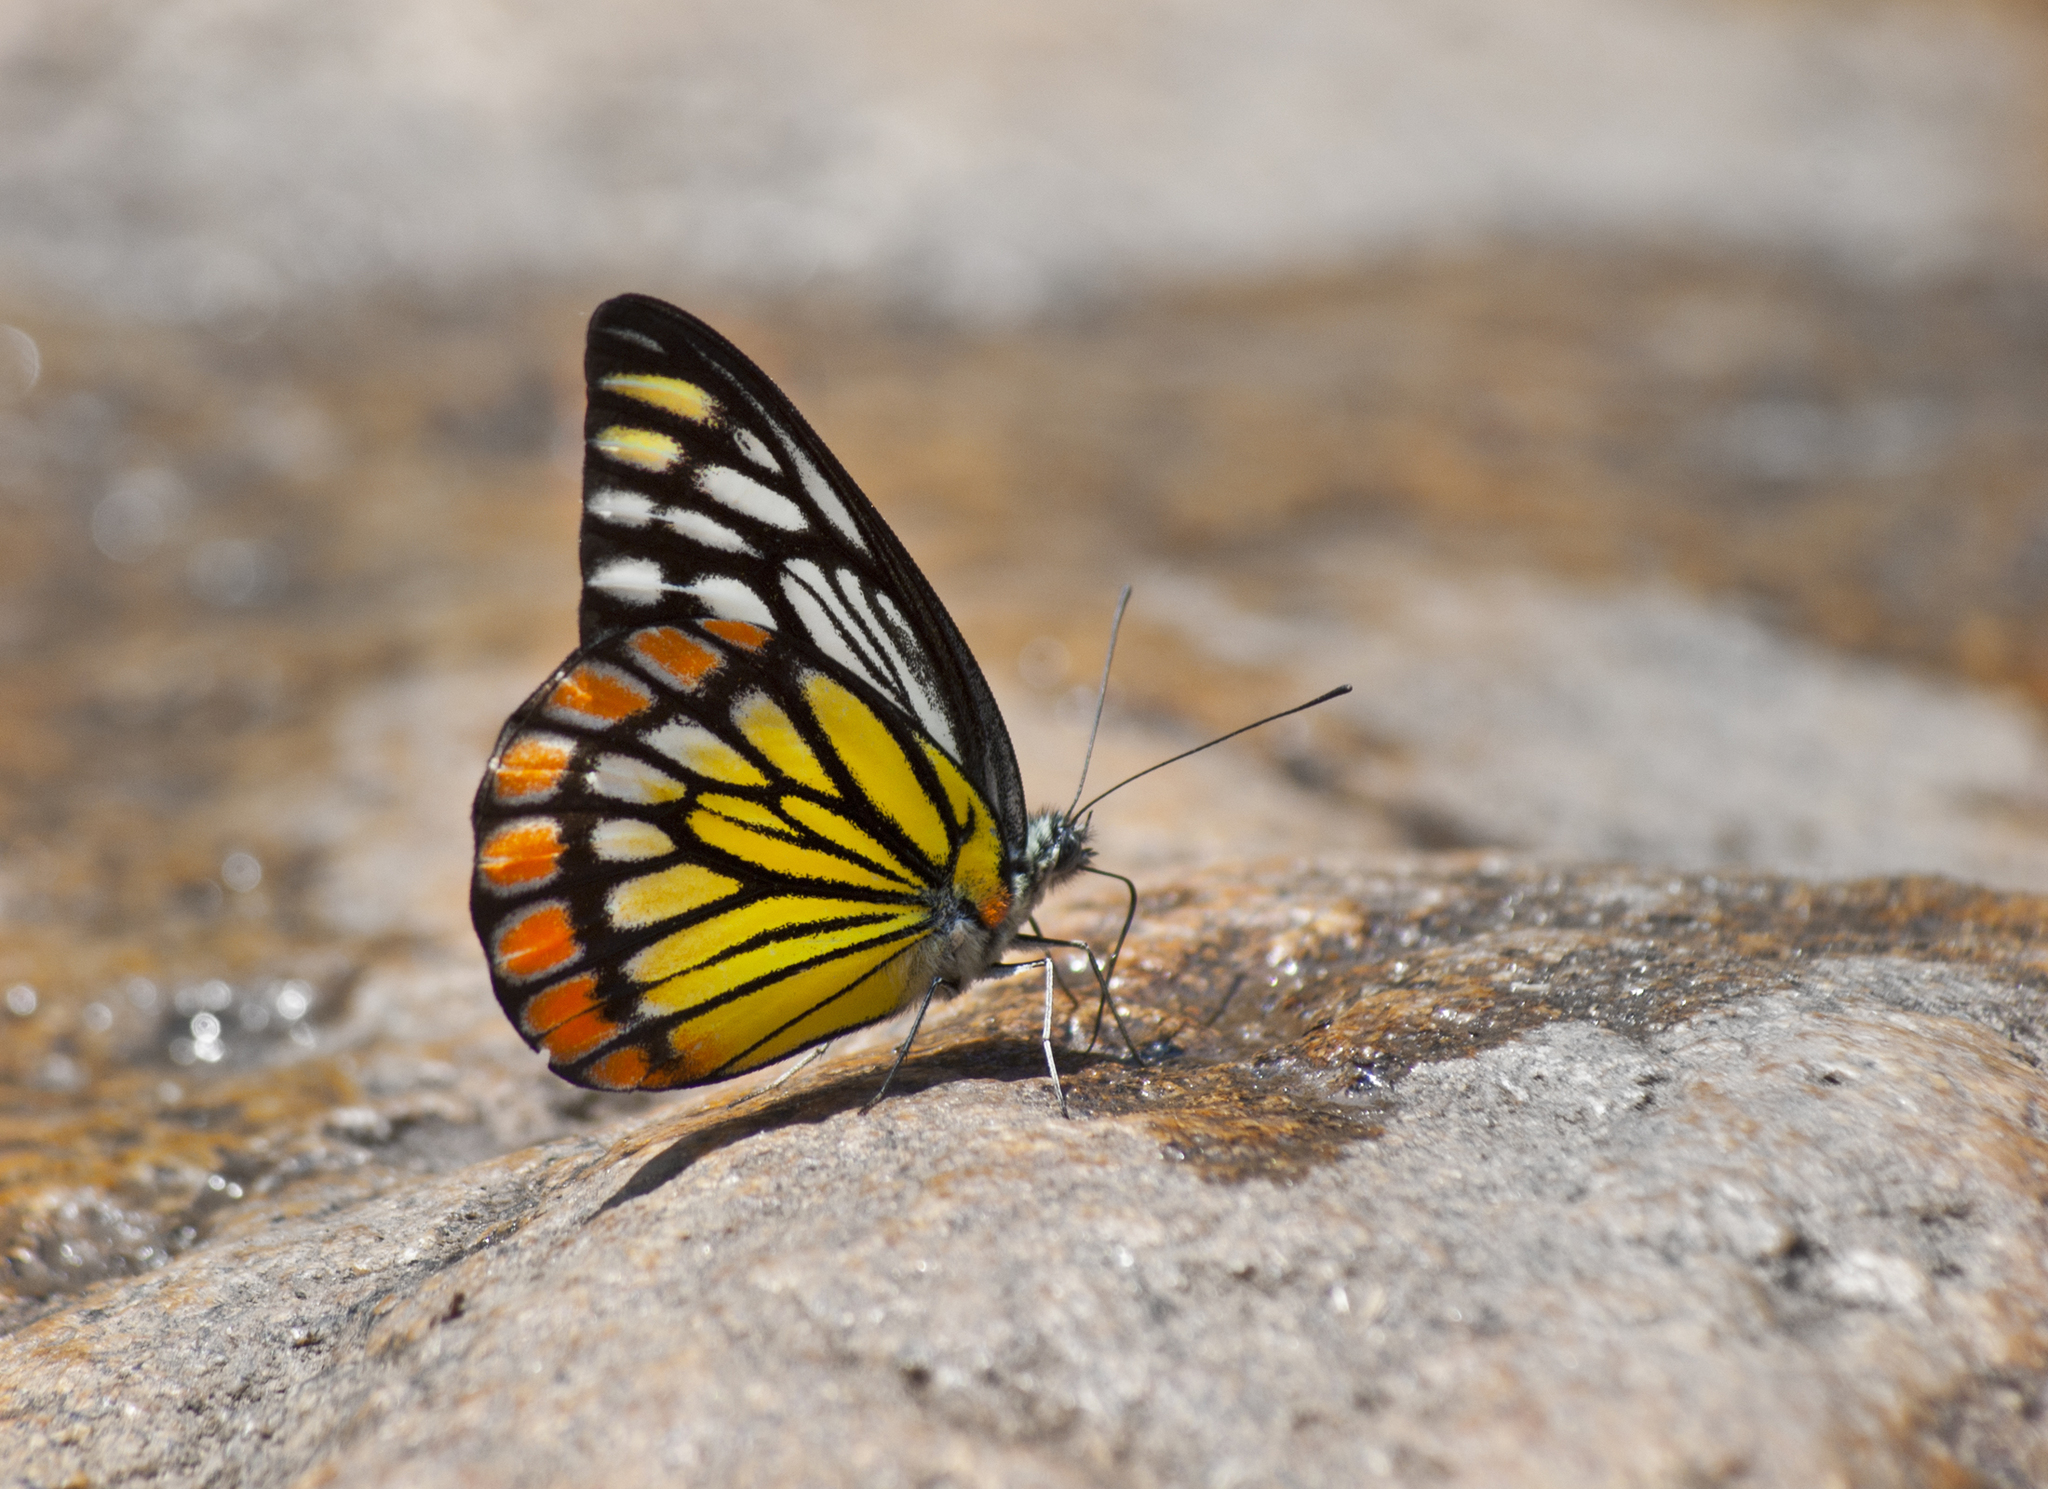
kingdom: Animalia
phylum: Arthropoda
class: Insecta
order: Lepidoptera
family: Pieridae
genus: Prioneris
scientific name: Prioneris sita
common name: Painted sawtooth
